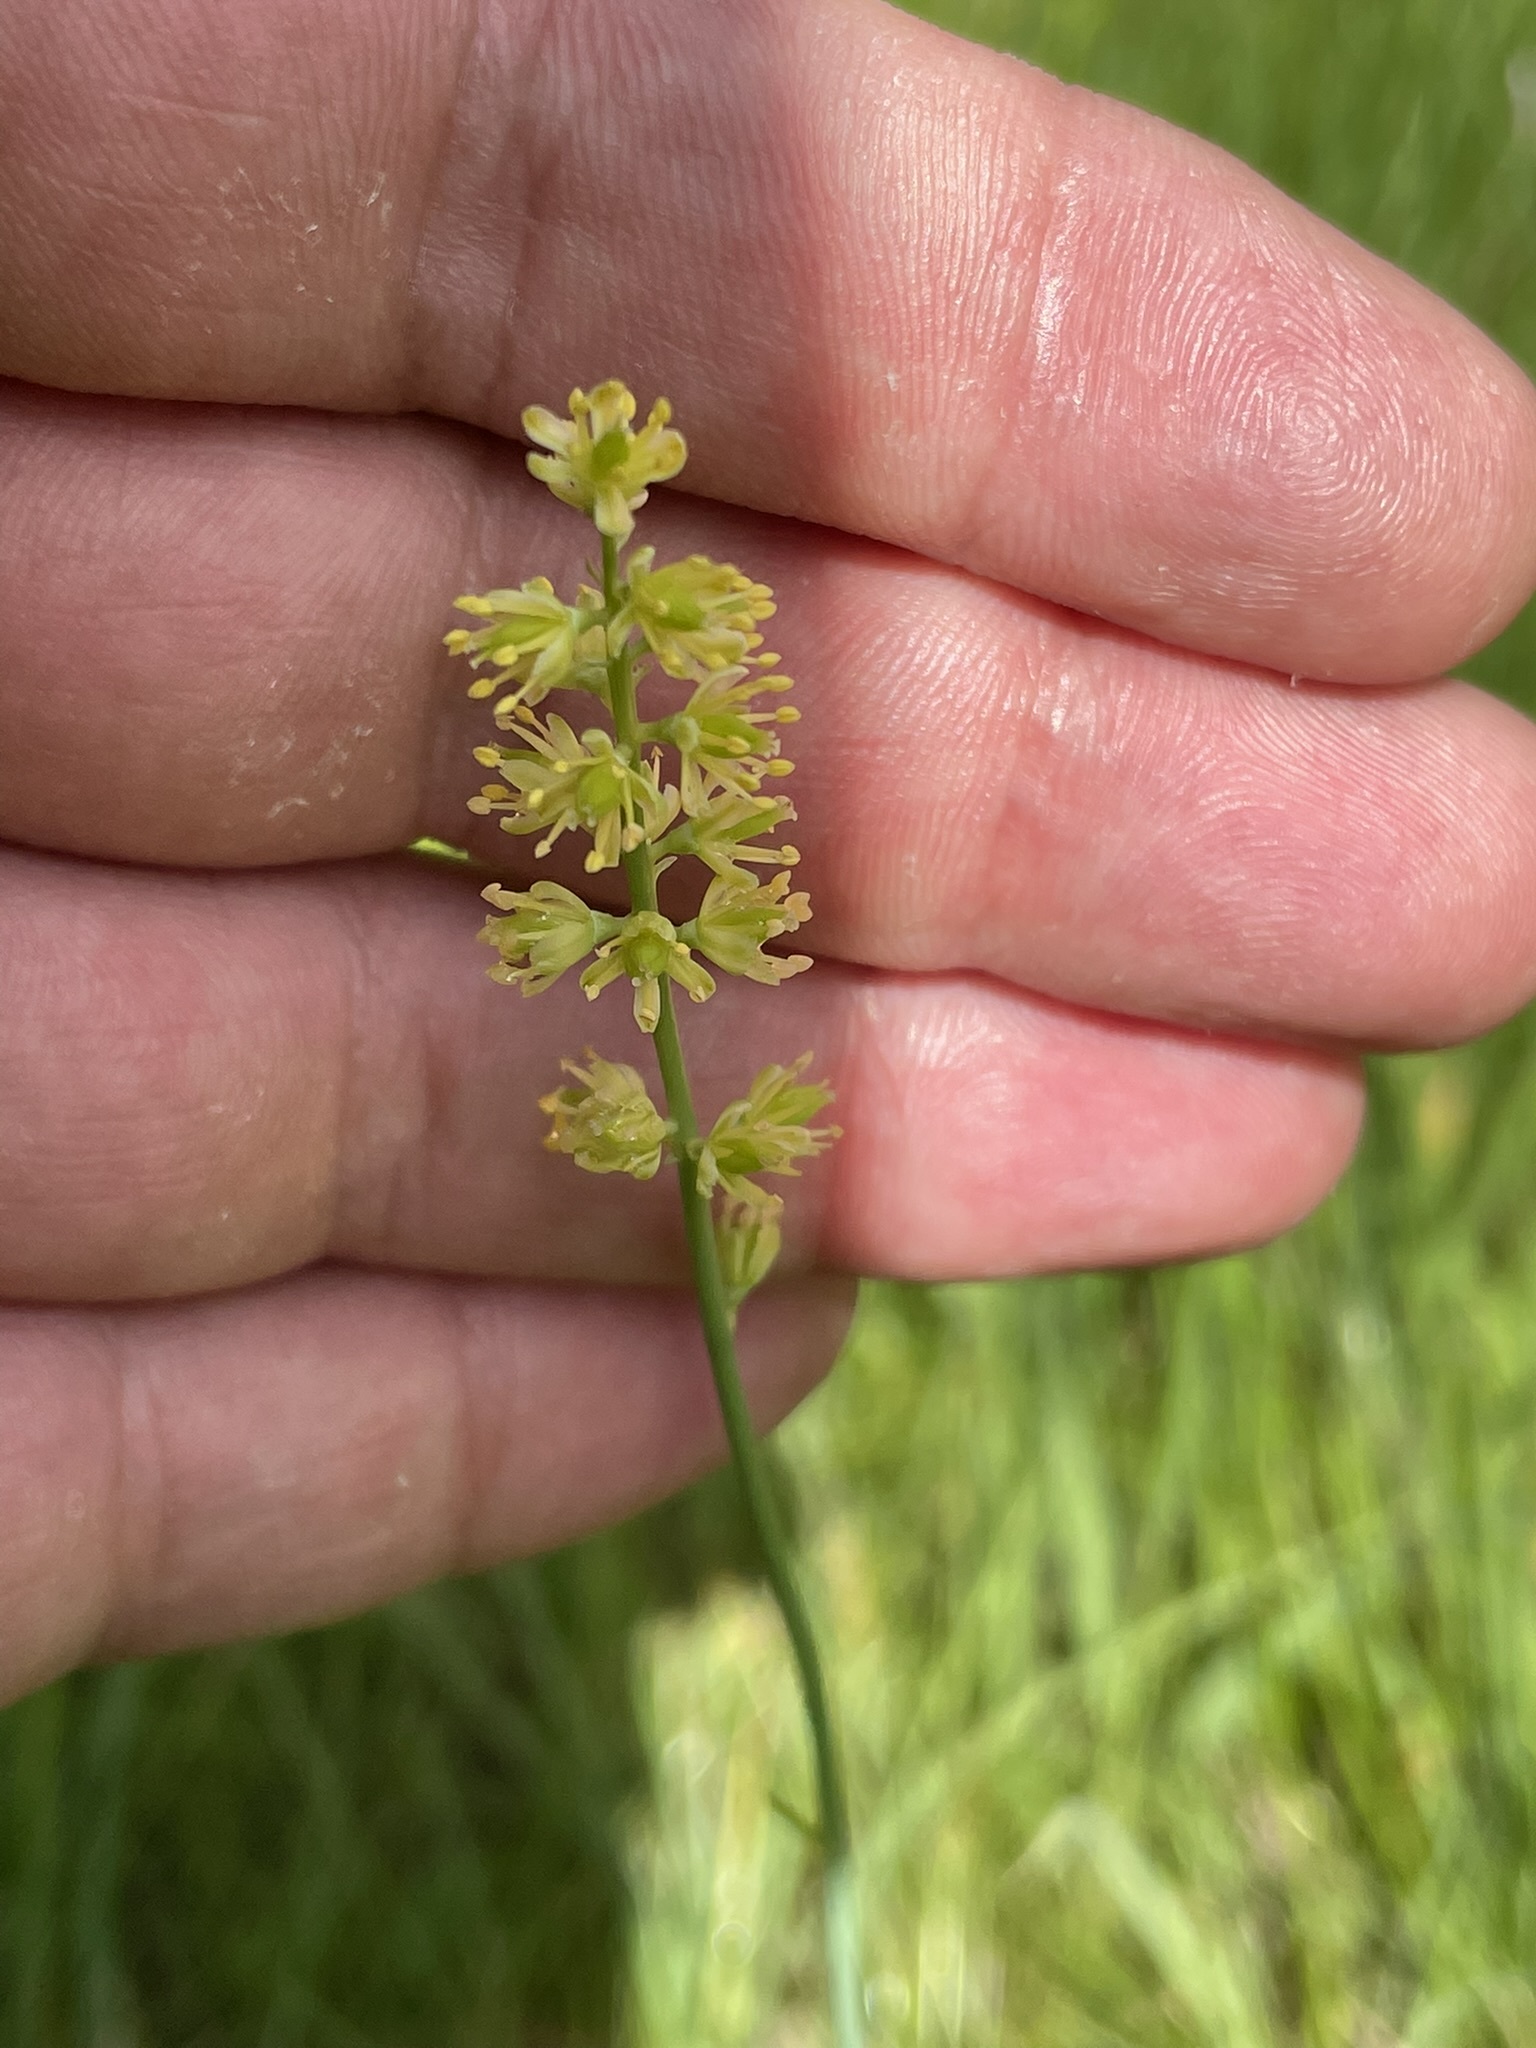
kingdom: Plantae
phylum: Tracheophyta
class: Liliopsida
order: Alismatales
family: Tofieldiaceae
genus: Tofieldia
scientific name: Tofieldia calyculata
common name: German-asphodel
